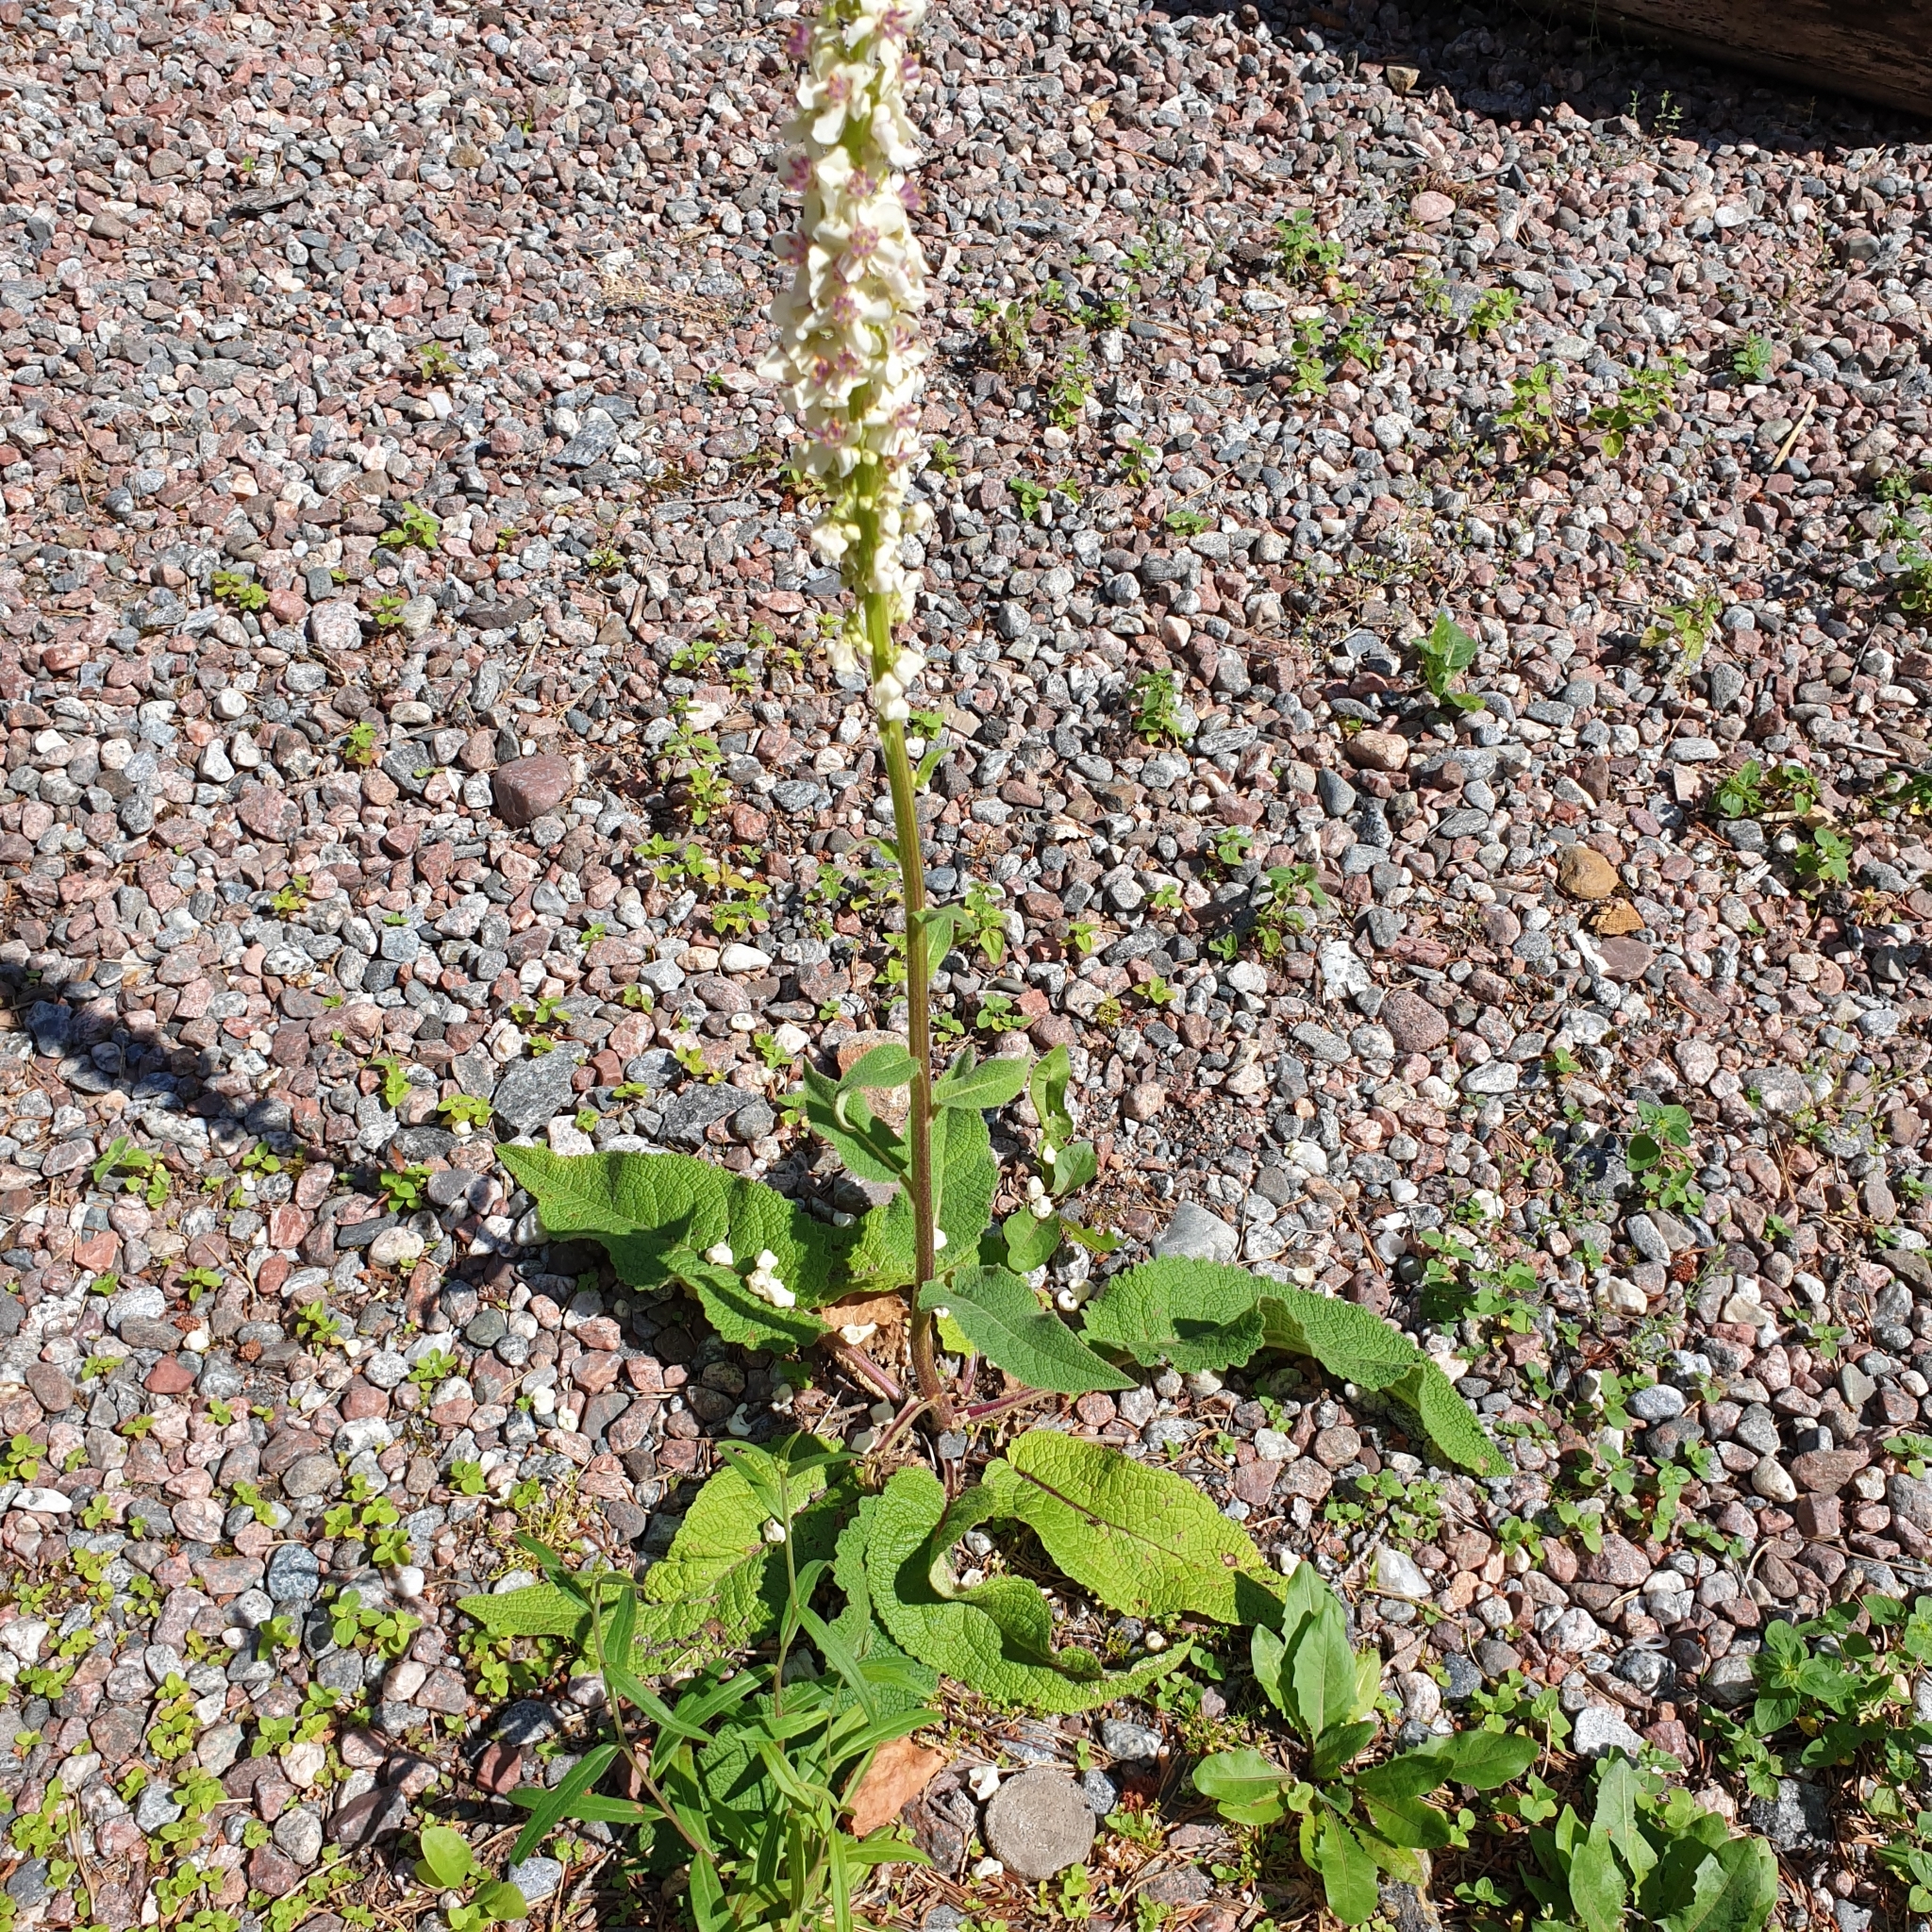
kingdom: Plantae
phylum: Tracheophyta
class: Magnoliopsida
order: Lamiales
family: Scrophulariaceae
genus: Verbascum
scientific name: Verbascum nigrum
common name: Dark mullein
